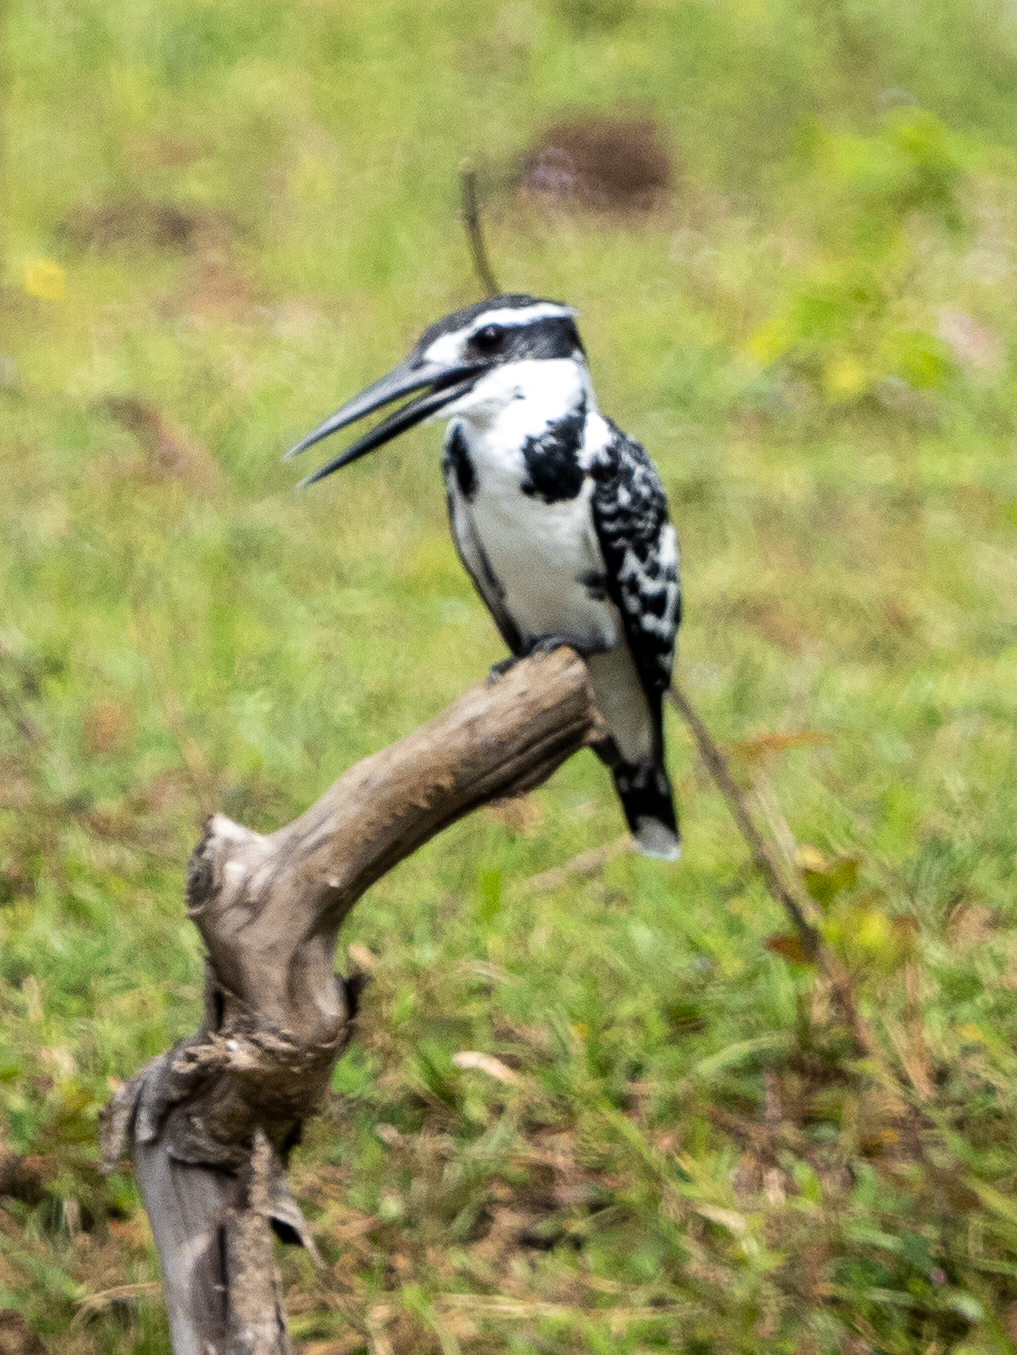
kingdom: Animalia
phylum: Chordata
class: Aves
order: Coraciiformes
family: Alcedinidae
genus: Ceryle
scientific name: Ceryle rudis
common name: Pied kingfisher
